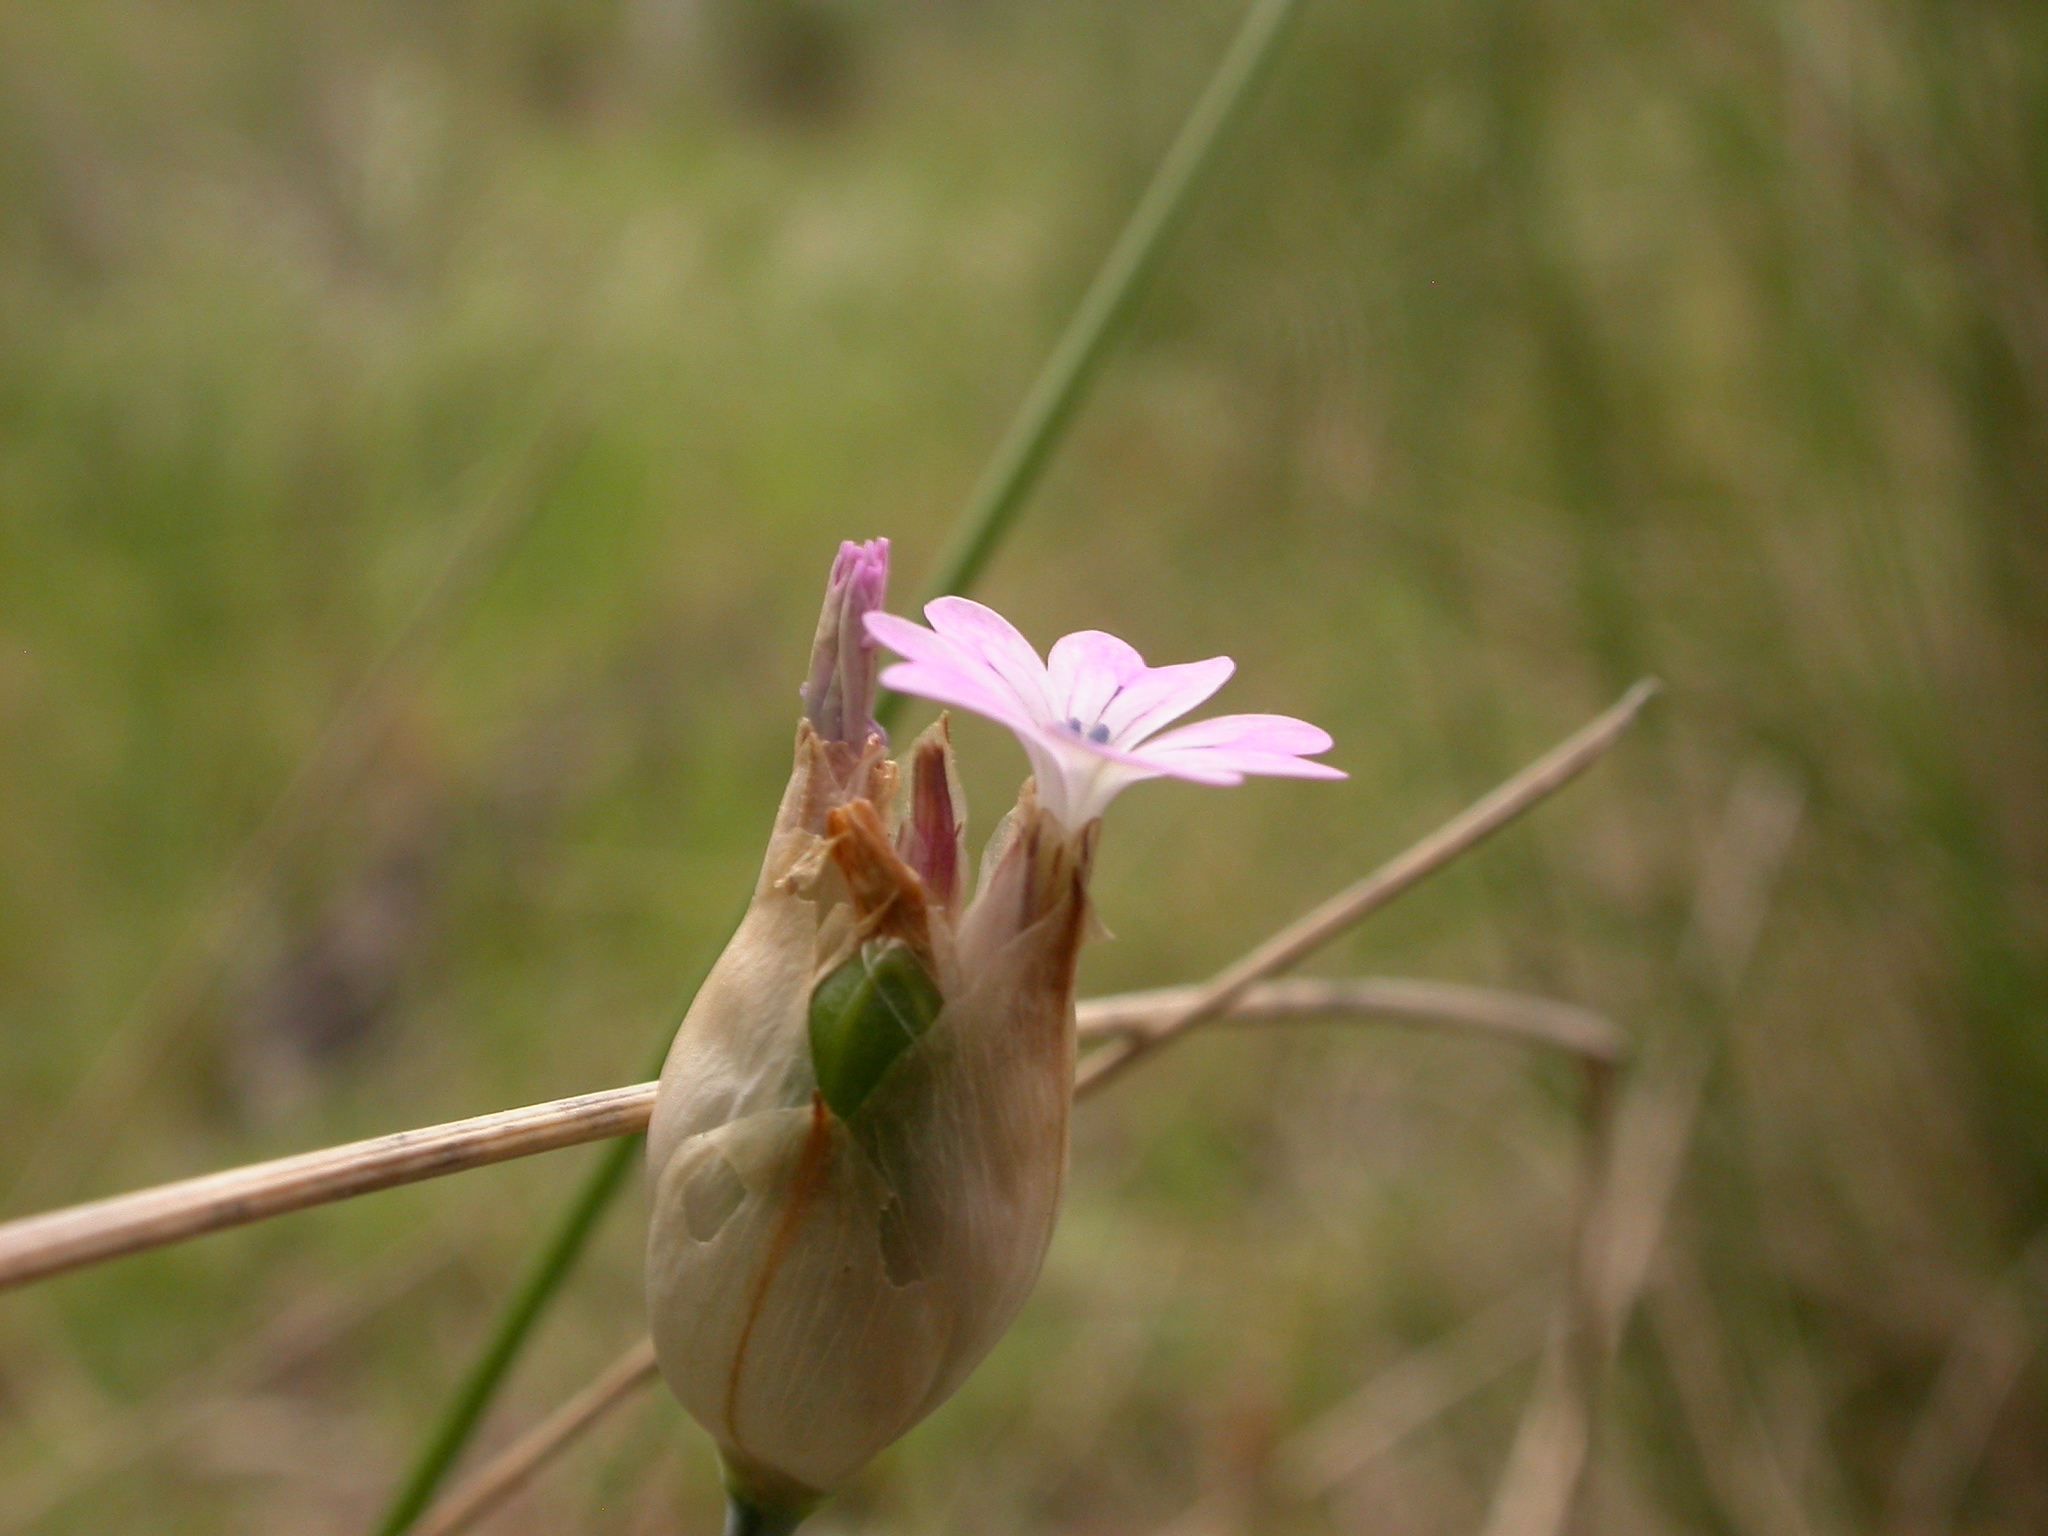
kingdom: Plantae
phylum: Tracheophyta
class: Magnoliopsida
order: Caryophyllales
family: Caryophyllaceae
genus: Petrorhagia
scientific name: Petrorhagia nanteuilii
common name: Proliferous pink
